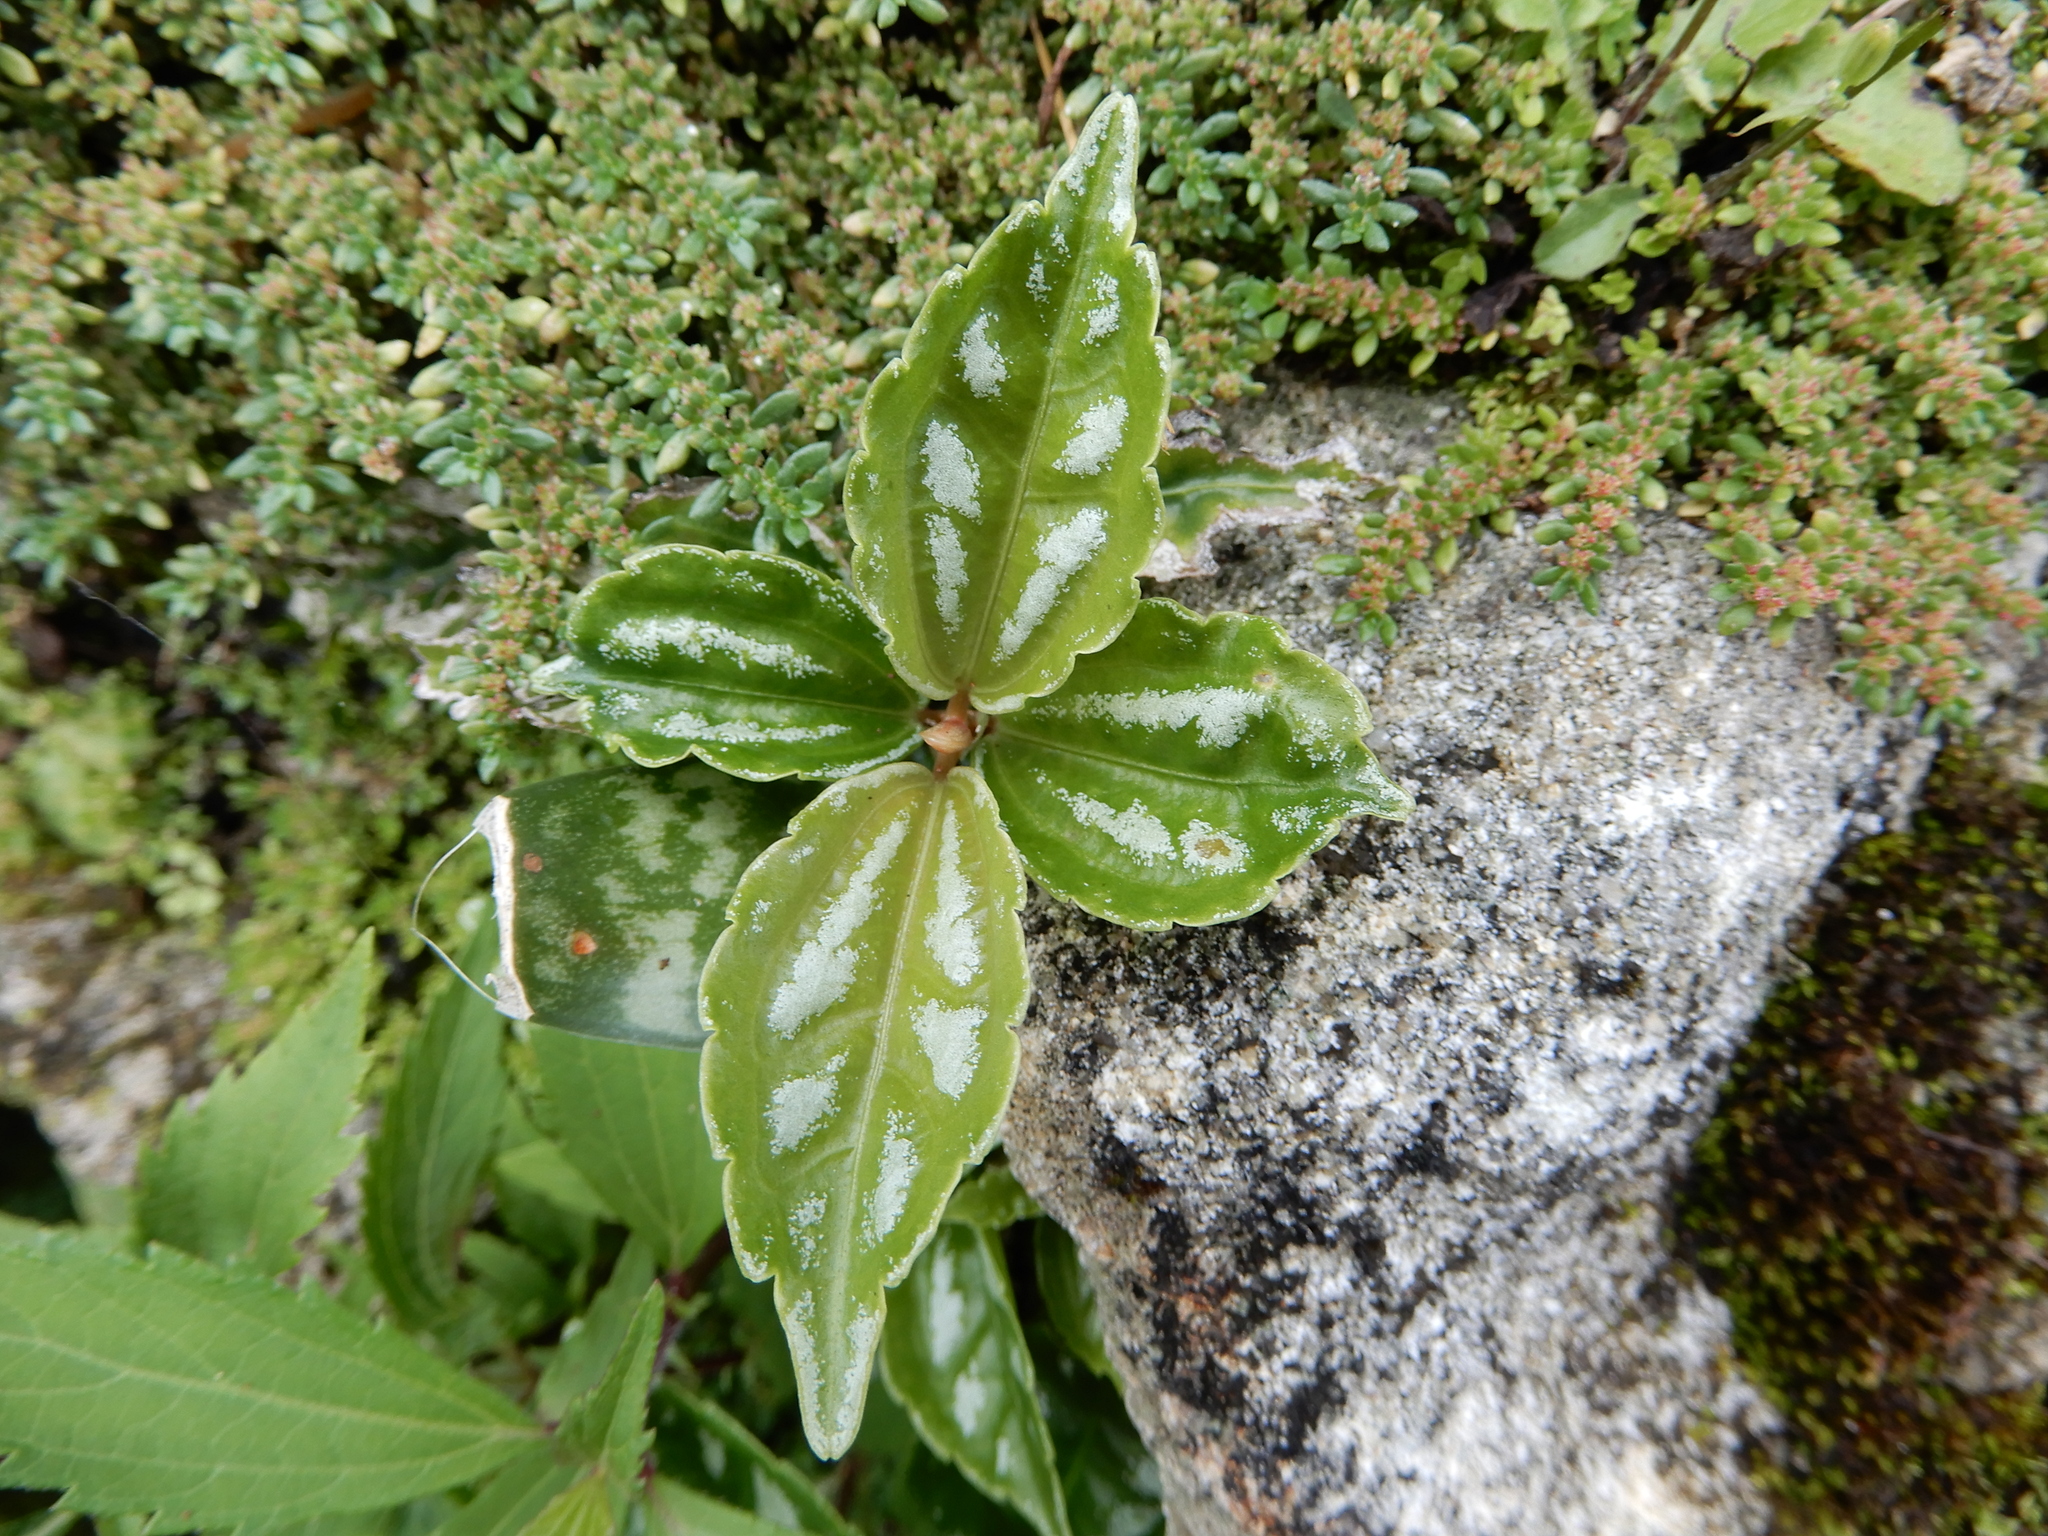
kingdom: Plantae
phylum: Tracheophyta
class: Magnoliopsida
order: Rosales
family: Urticaceae
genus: Pilea
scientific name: Pilea cadierei
